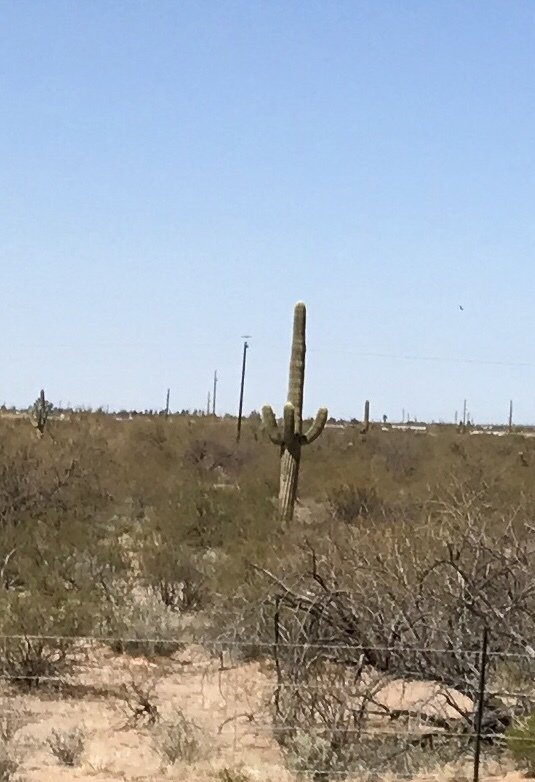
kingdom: Plantae
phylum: Tracheophyta
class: Magnoliopsida
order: Caryophyllales
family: Cactaceae
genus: Carnegiea
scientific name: Carnegiea gigantea
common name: Saguaro
